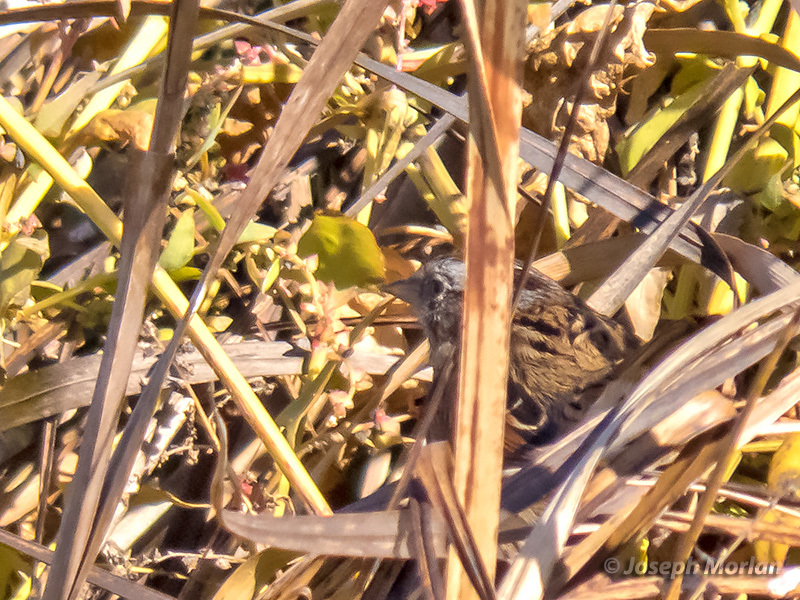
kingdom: Animalia
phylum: Chordata
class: Aves
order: Passeriformes
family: Passerellidae
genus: Melospiza
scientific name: Melospiza georgiana
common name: Swamp sparrow
